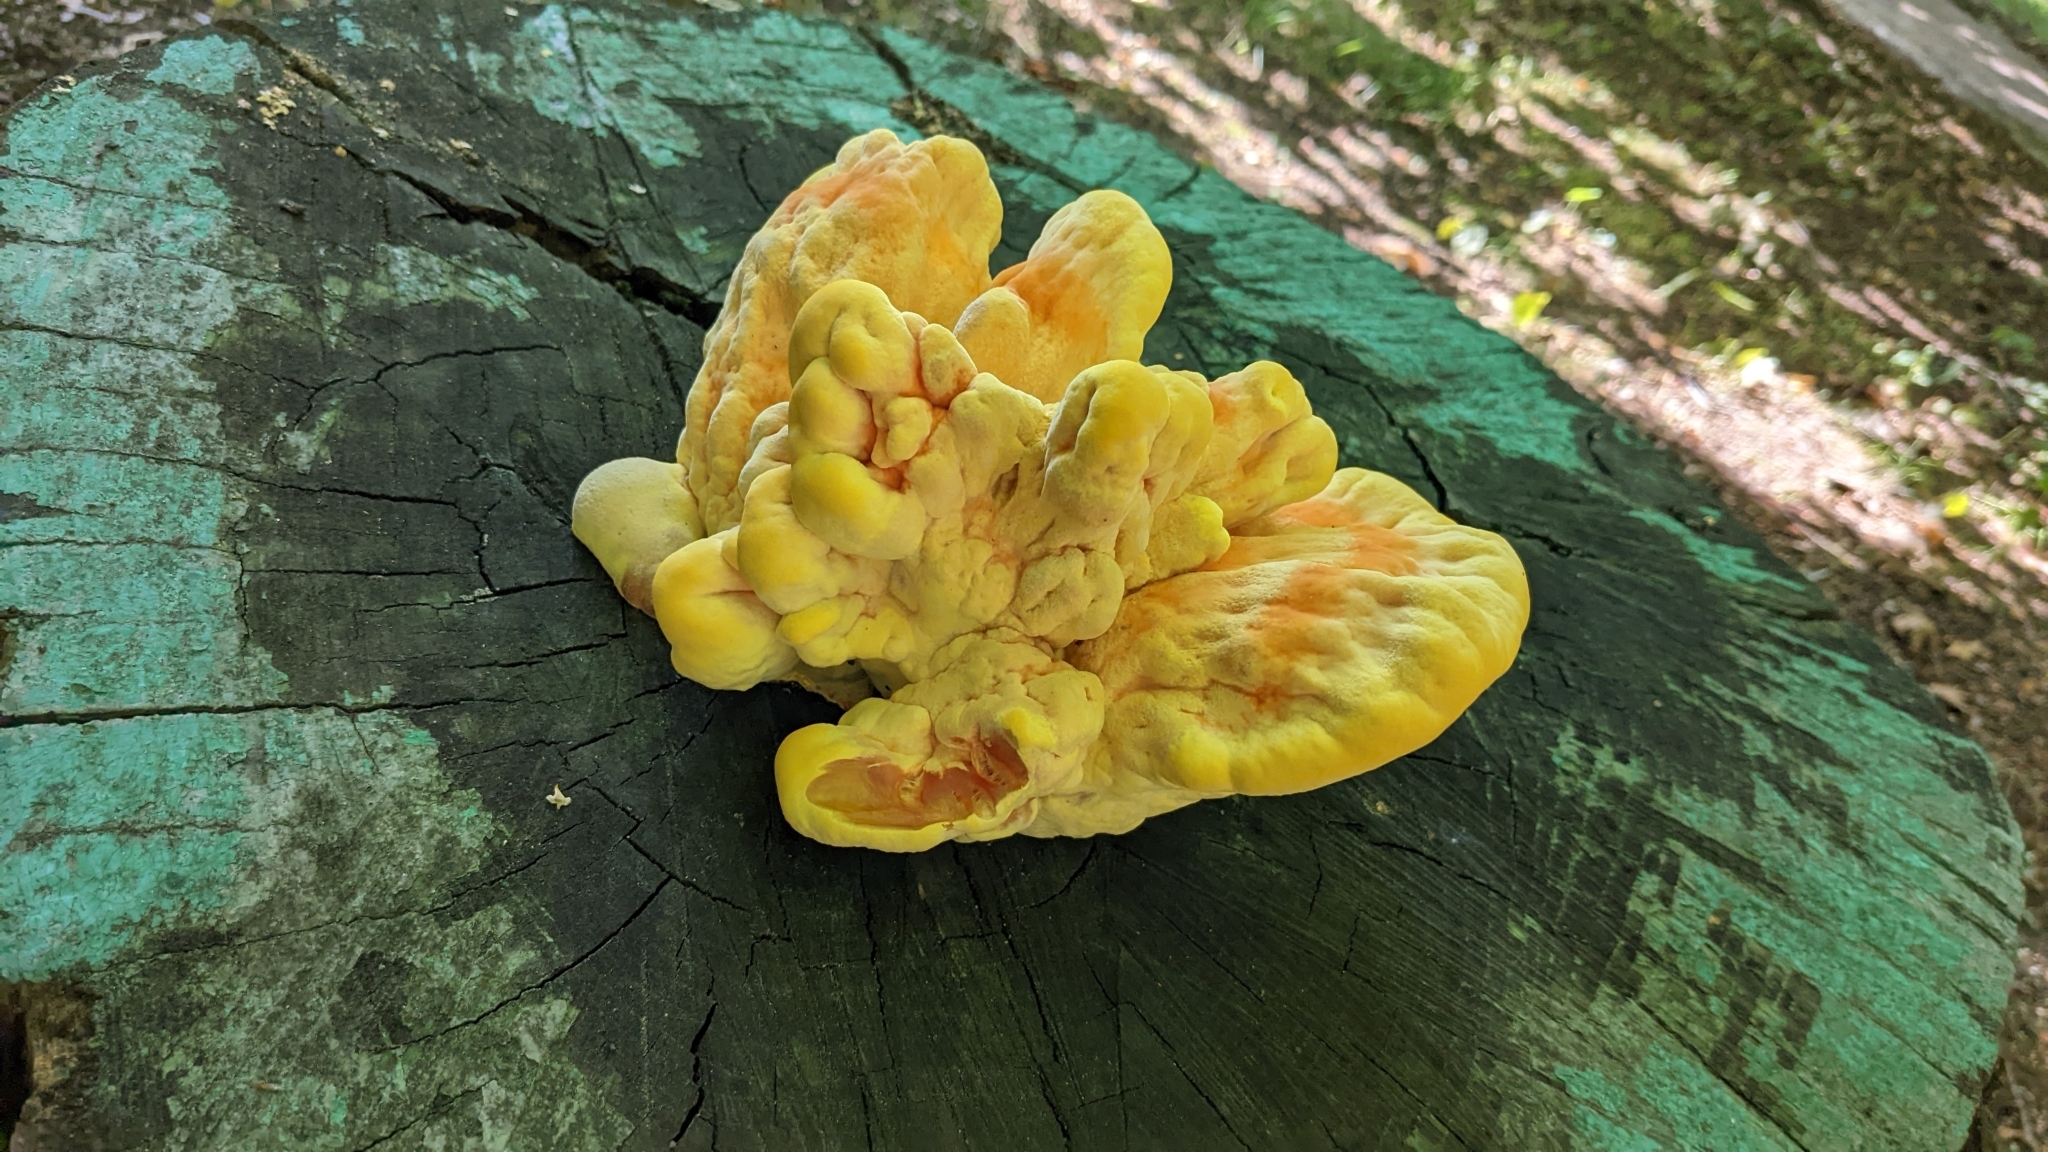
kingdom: Fungi
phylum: Basidiomycota
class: Agaricomycetes
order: Polyporales
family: Laetiporaceae
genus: Laetiporus
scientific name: Laetiporus sulphureus
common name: Chicken of the woods
